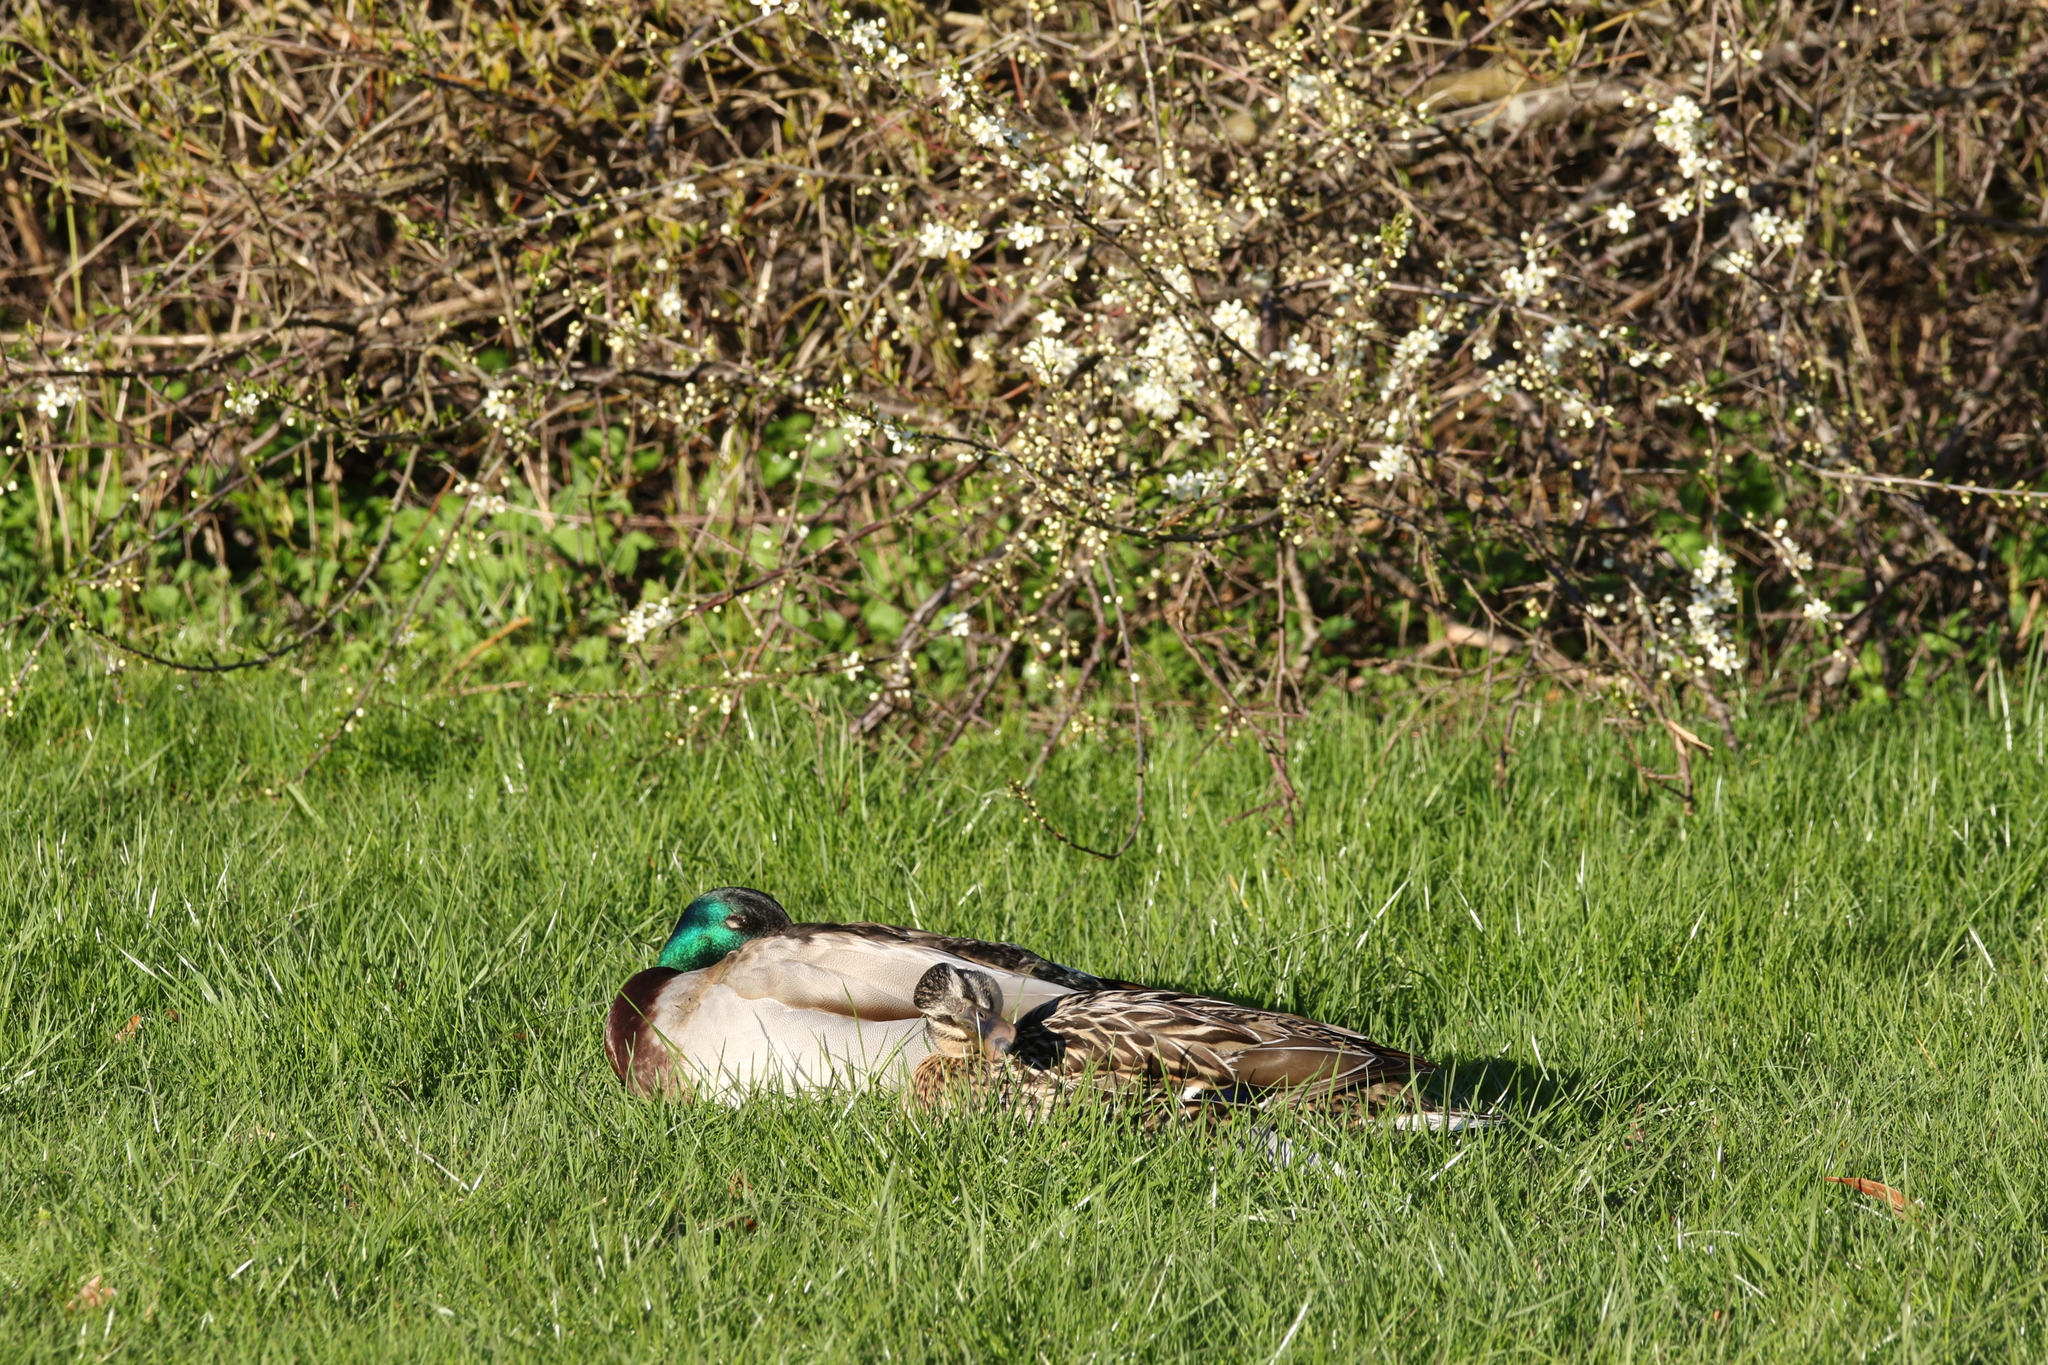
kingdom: Animalia
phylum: Chordata
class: Aves
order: Anseriformes
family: Anatidae
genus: Anas
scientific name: Anas platyrhynchos
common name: Mallard
